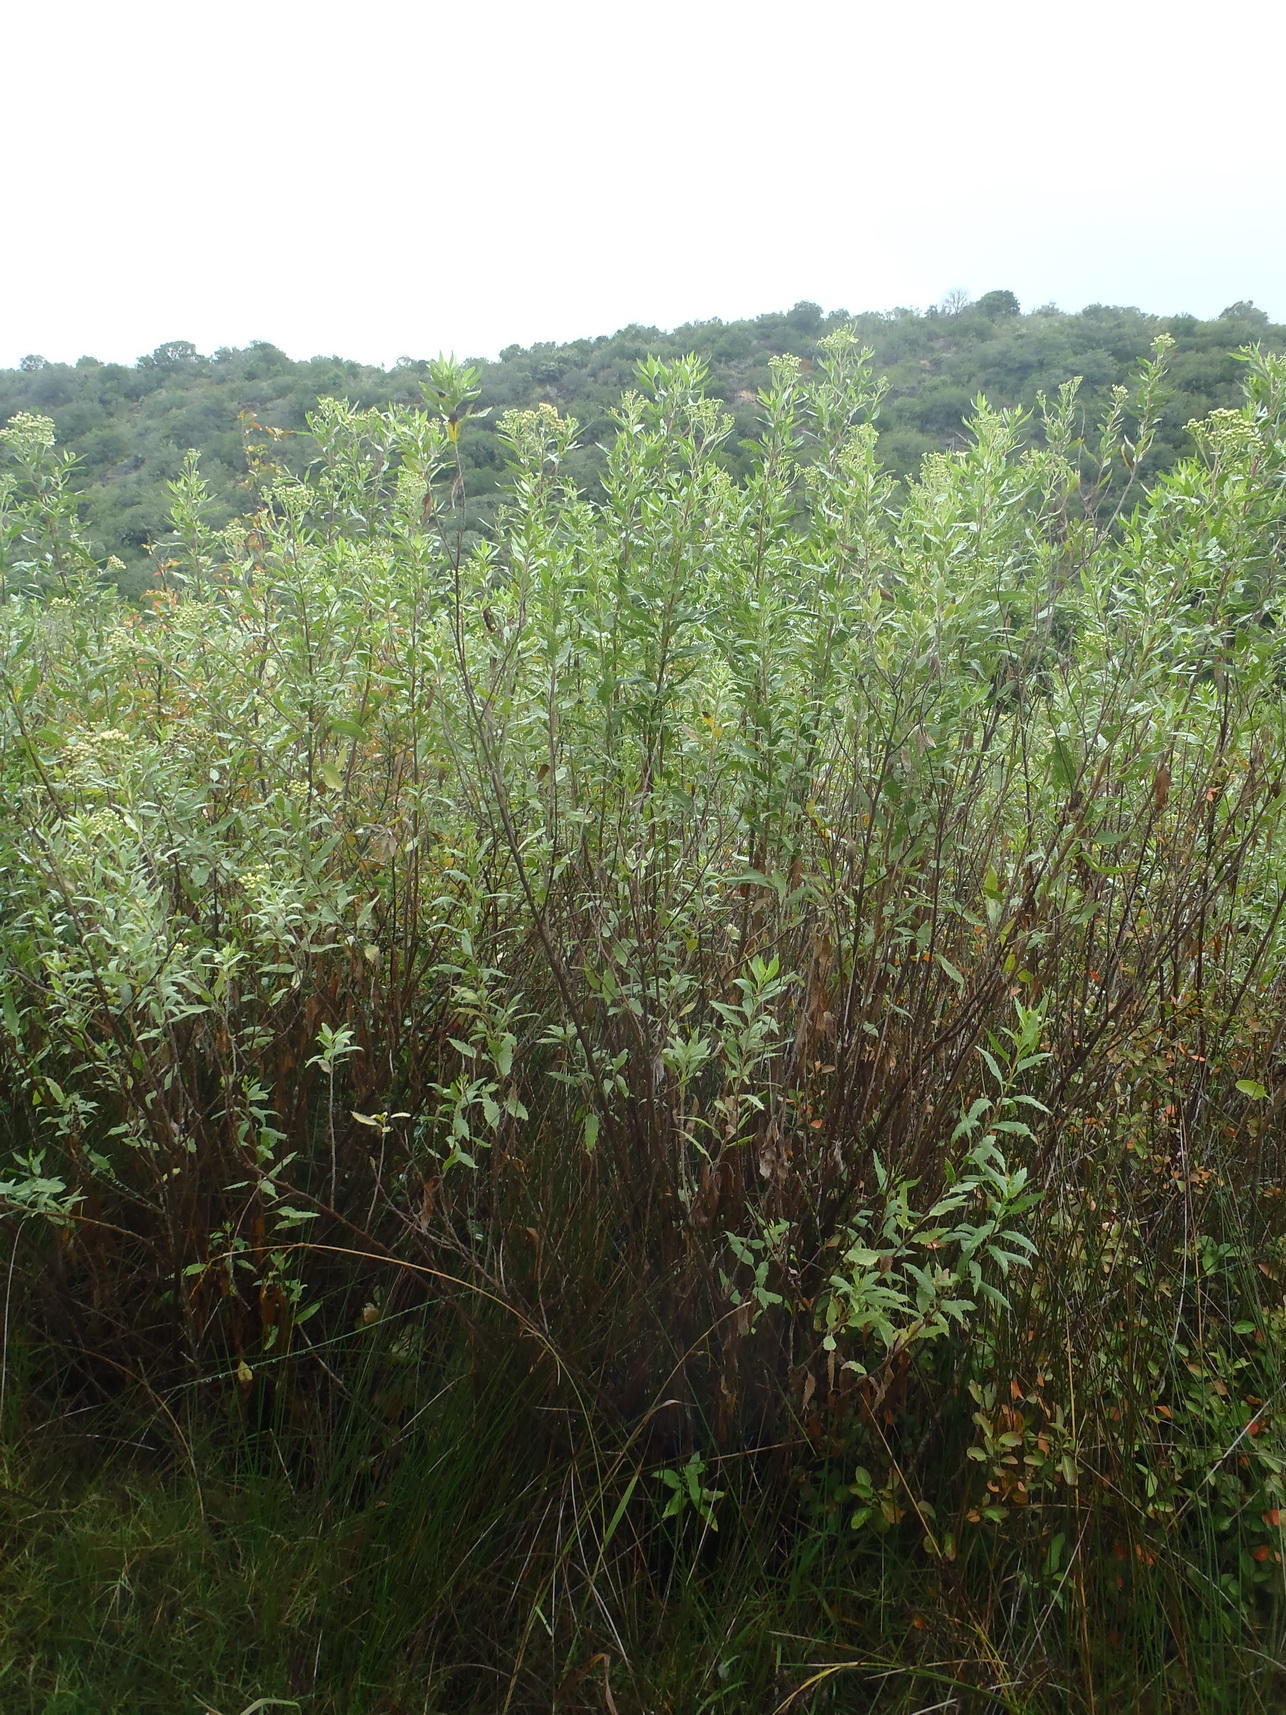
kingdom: Plantae
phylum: Tracheophyta
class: Magnoliopsida
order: Asterales
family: Asteraceae
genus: Nidorella
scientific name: Nidorella ivifolia
